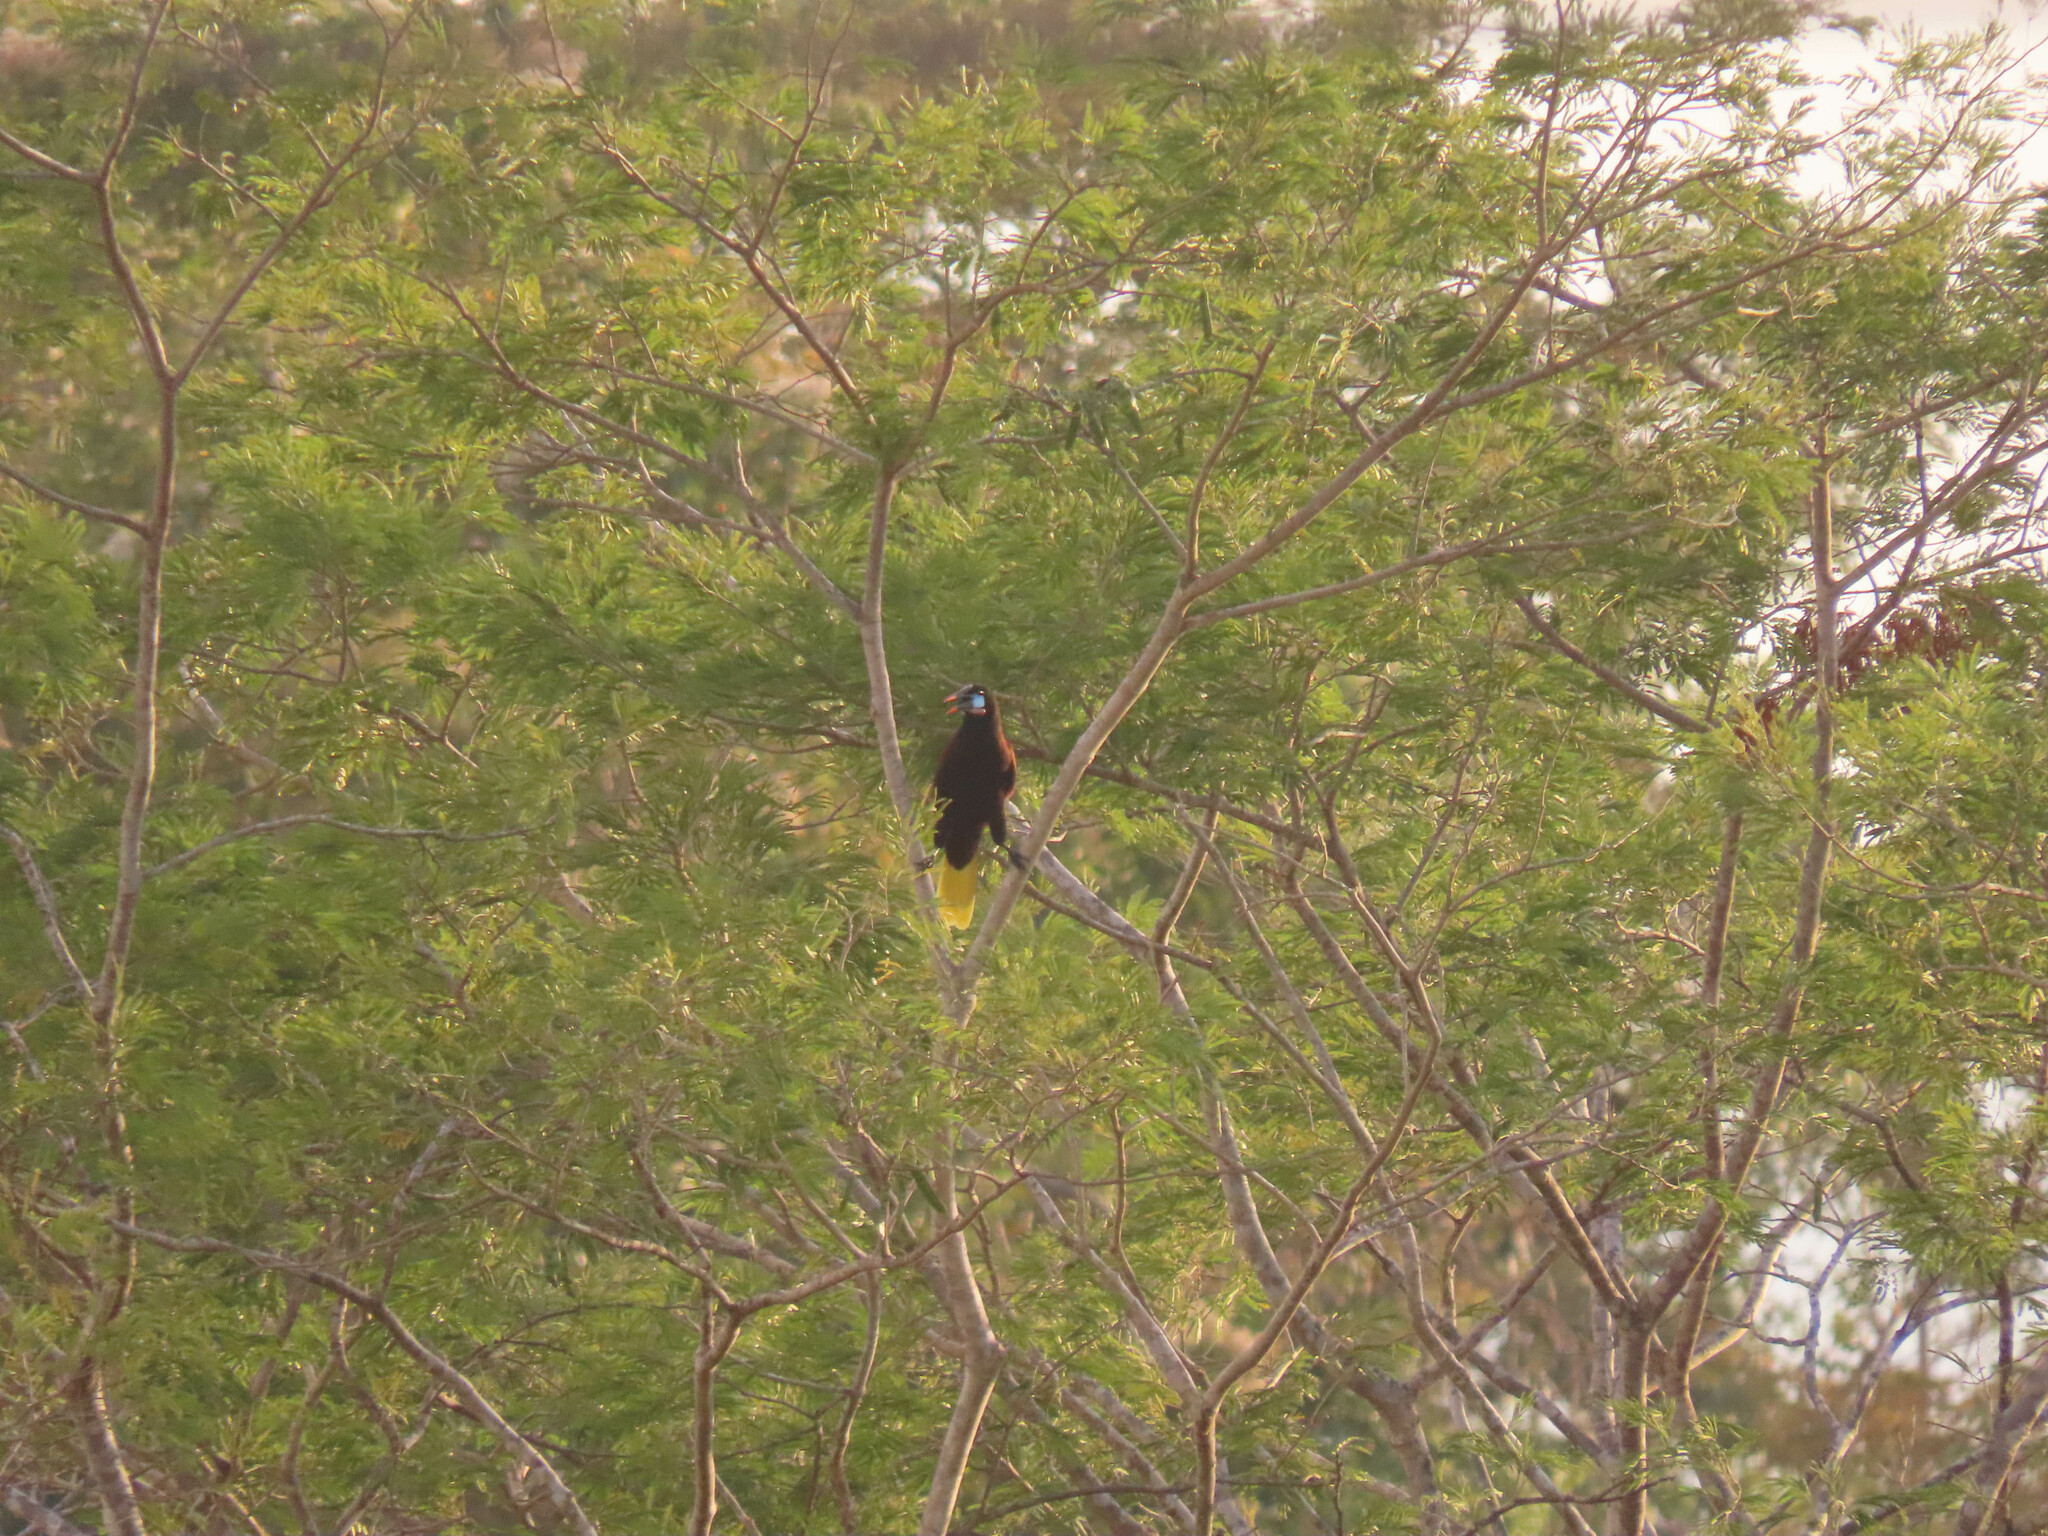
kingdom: Animalia
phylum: Chordata
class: Aves
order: Passeriformes
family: Icteridae
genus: Psarocolius
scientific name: Psarocolius montezuma
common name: Montezuma oropendola
